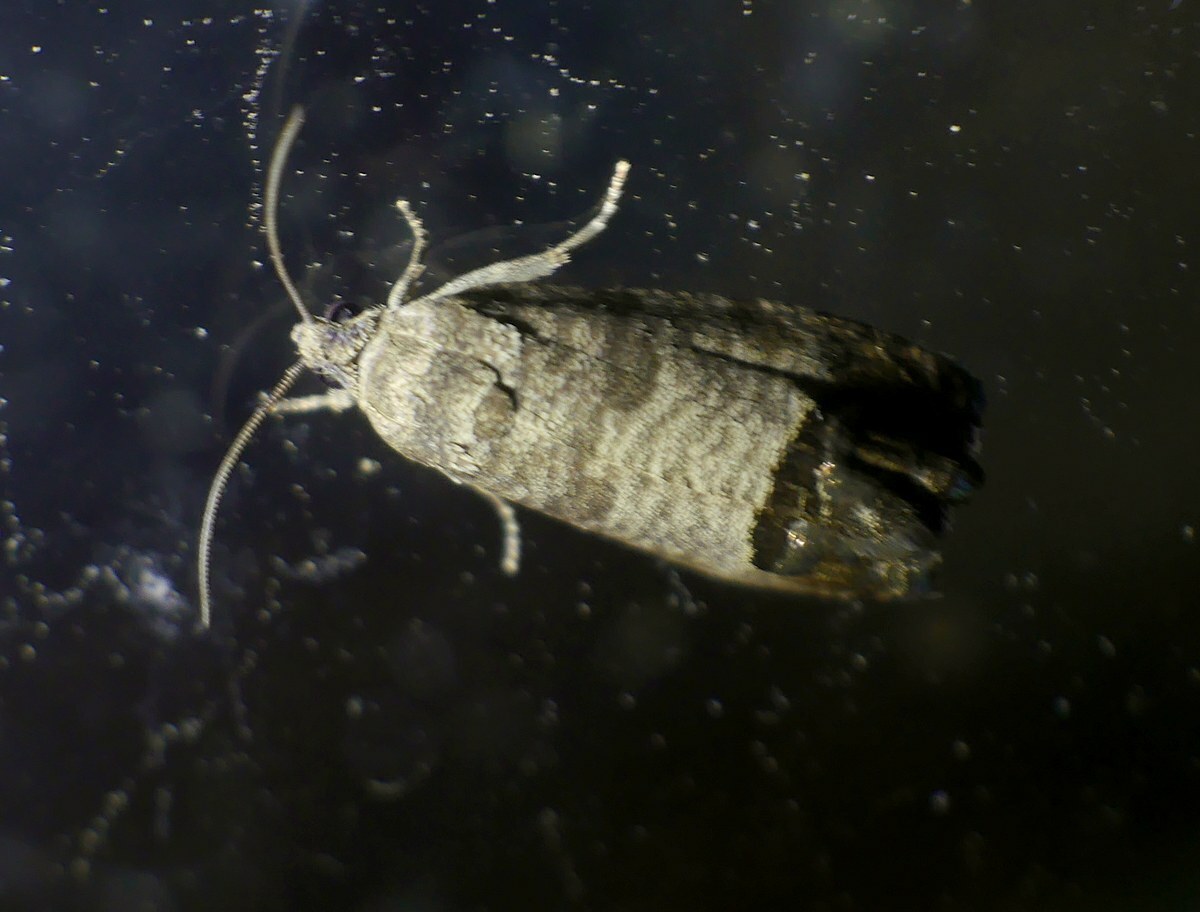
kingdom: Animalia
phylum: Arthropoda
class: Insecta
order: Lepidoptera
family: Tortricidae
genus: Cydia
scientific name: Cydia pomonella
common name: Codling moth
